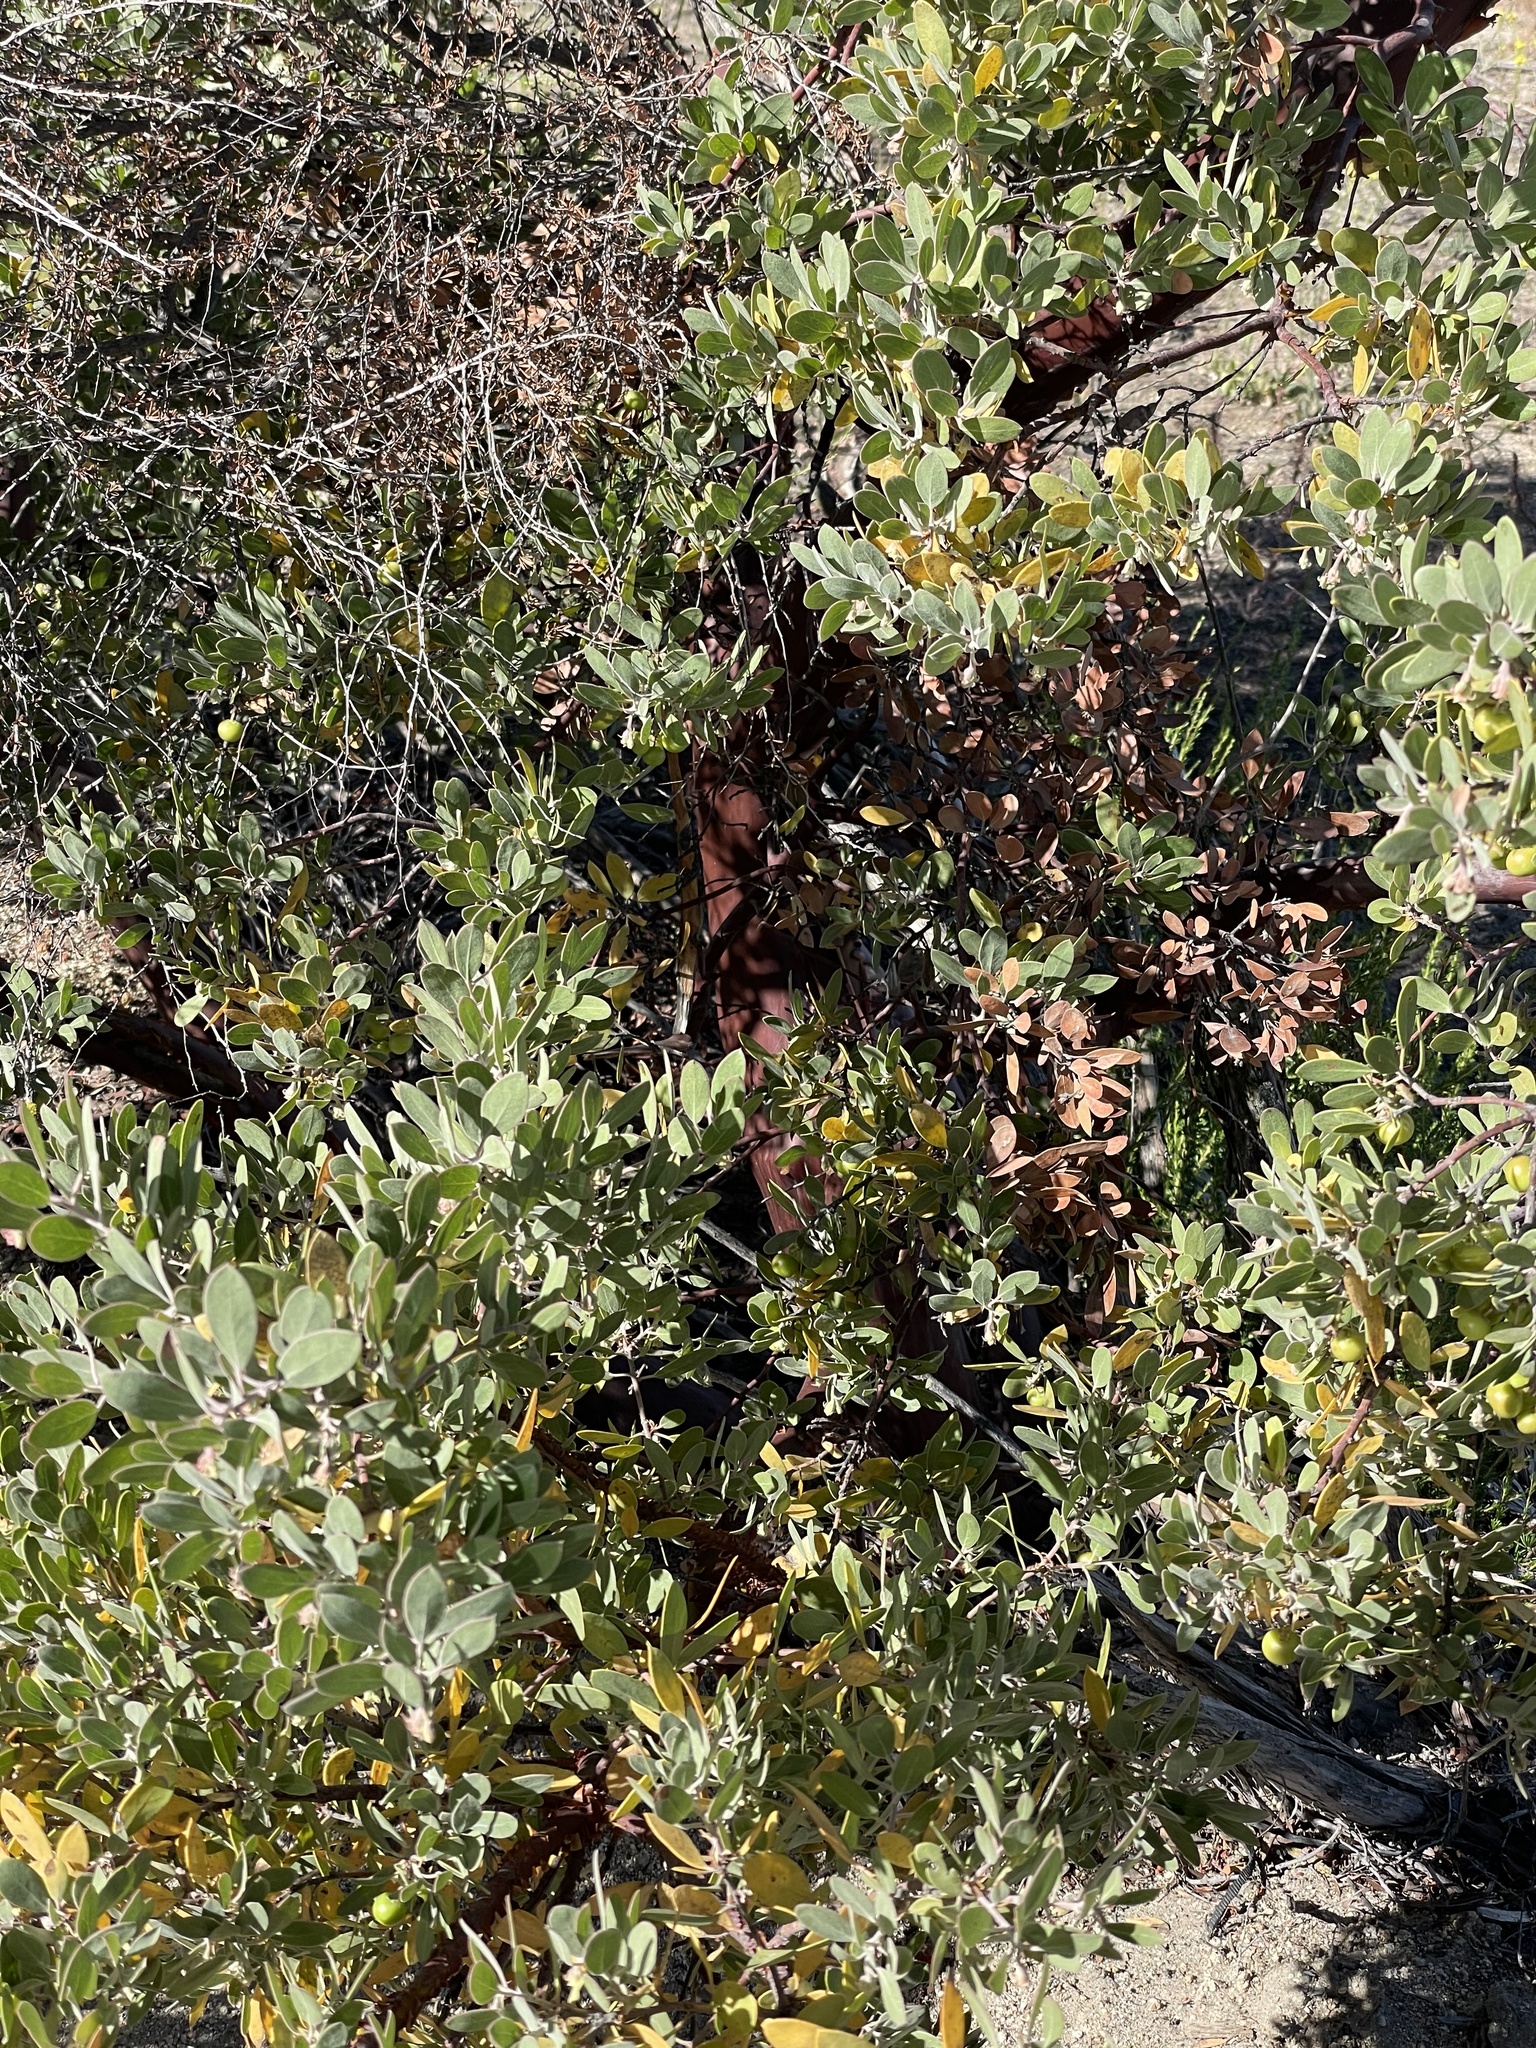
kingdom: Plantae
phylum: Tracheophyta
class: Magnoliopsida
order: Ericales
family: Ericaceae
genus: Arctostaphylos
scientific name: Arctostaphylos pungens
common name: Mexican manzanita
